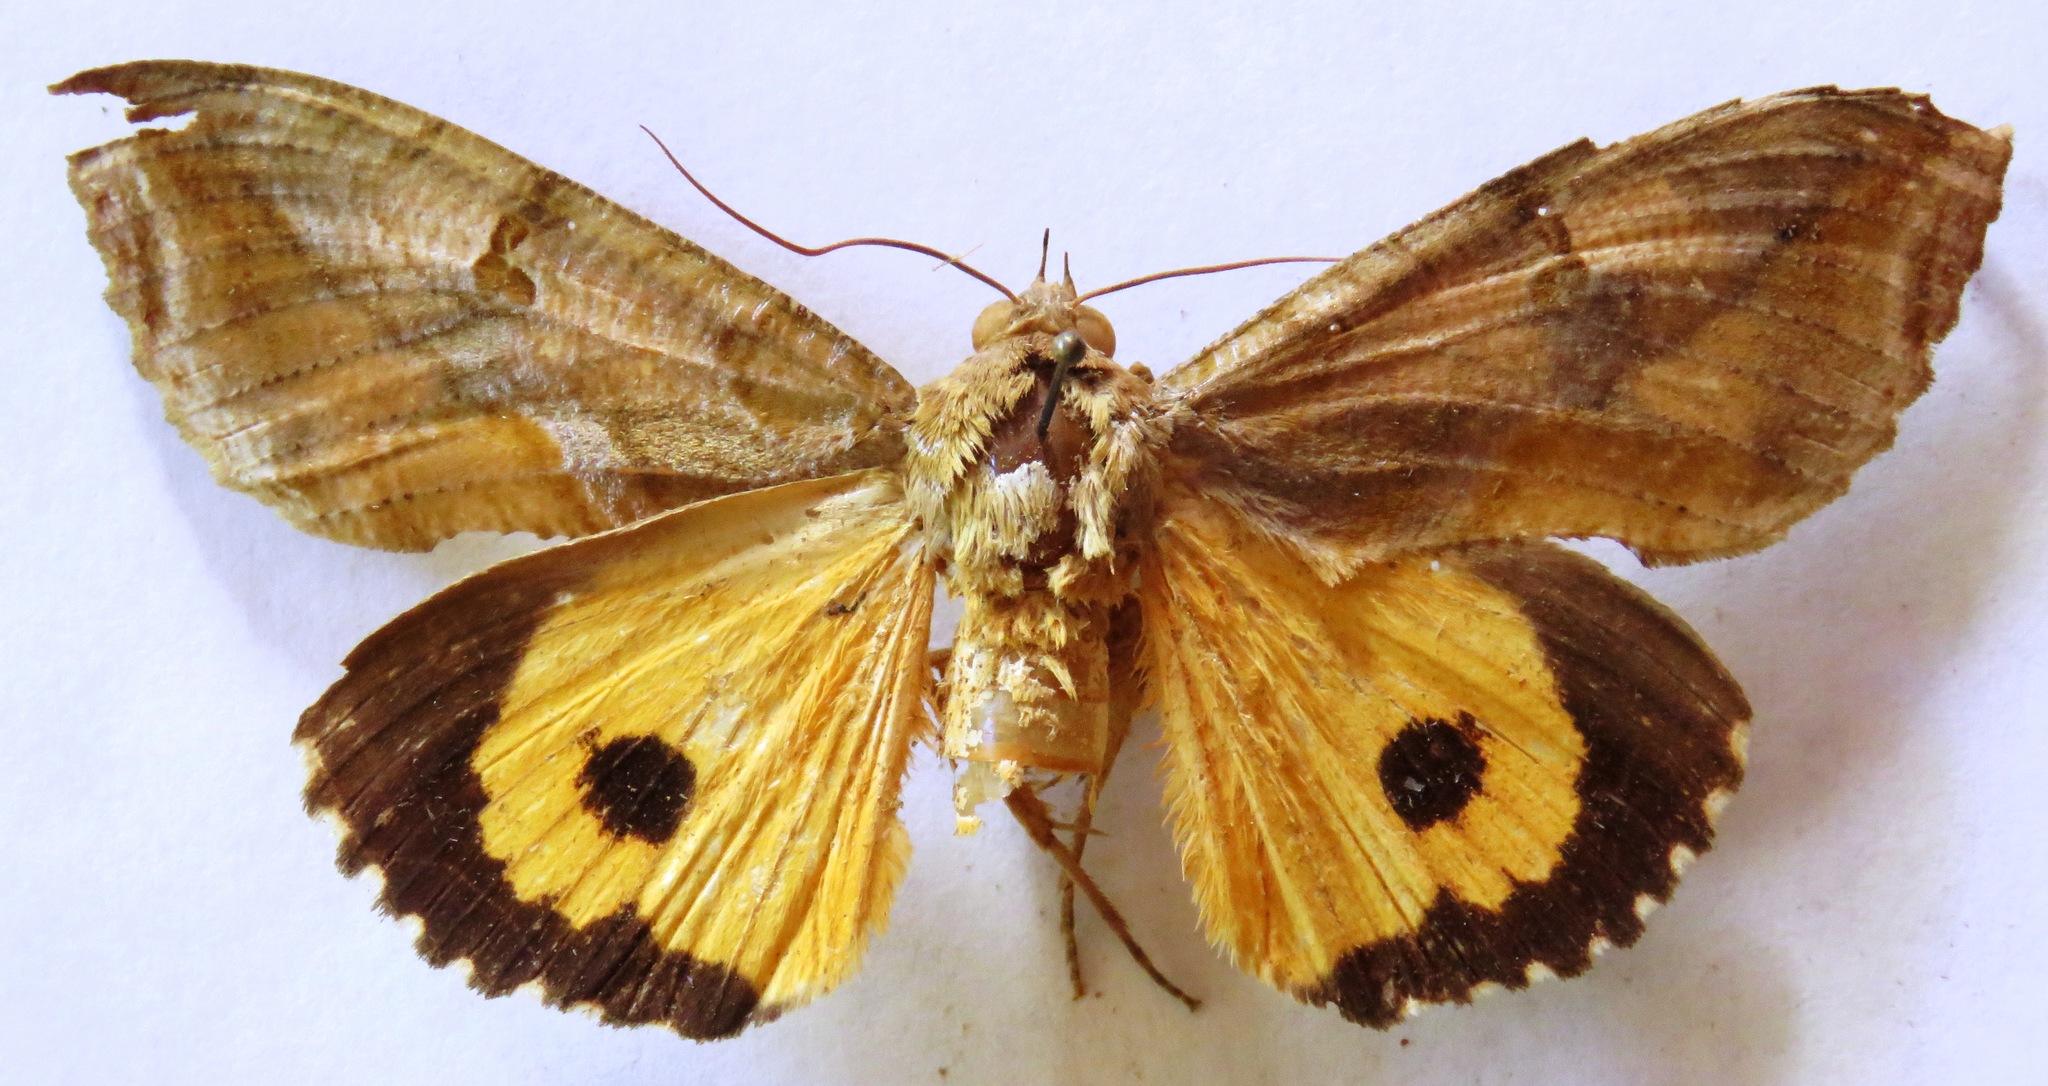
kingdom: Animalia
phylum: Arthropoda
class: Insecta
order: Lepidoptera
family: Erebidae
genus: Eudocima
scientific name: Eudocima apta
